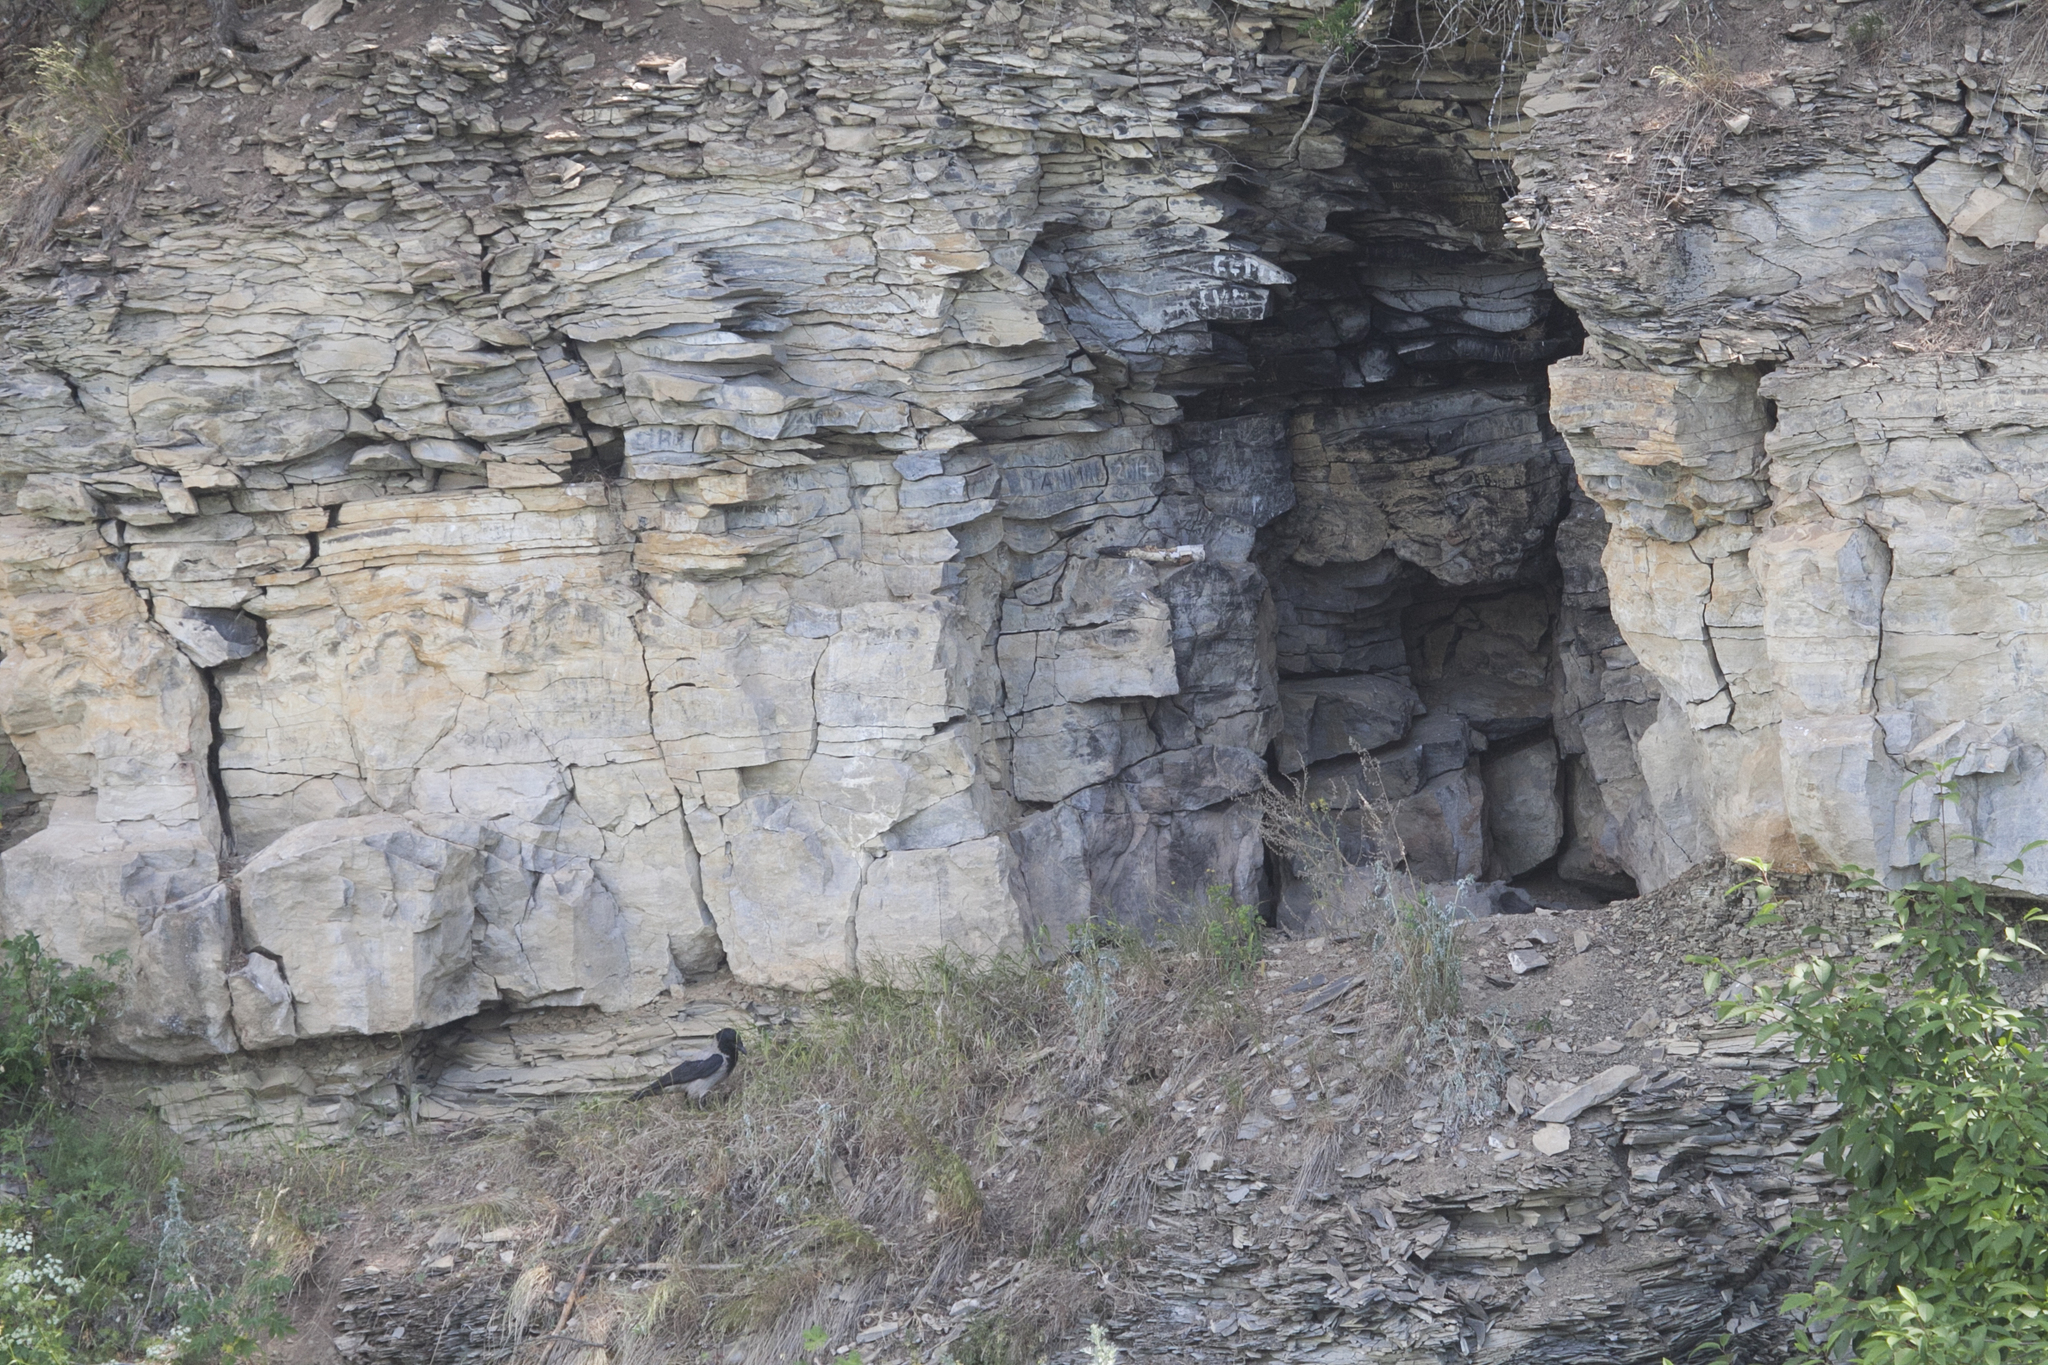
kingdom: Animalia
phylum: Chordata
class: Aves
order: Passeriformes
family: Corvidae
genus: Corvus
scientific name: Corvus cornix
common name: Hooded crow
